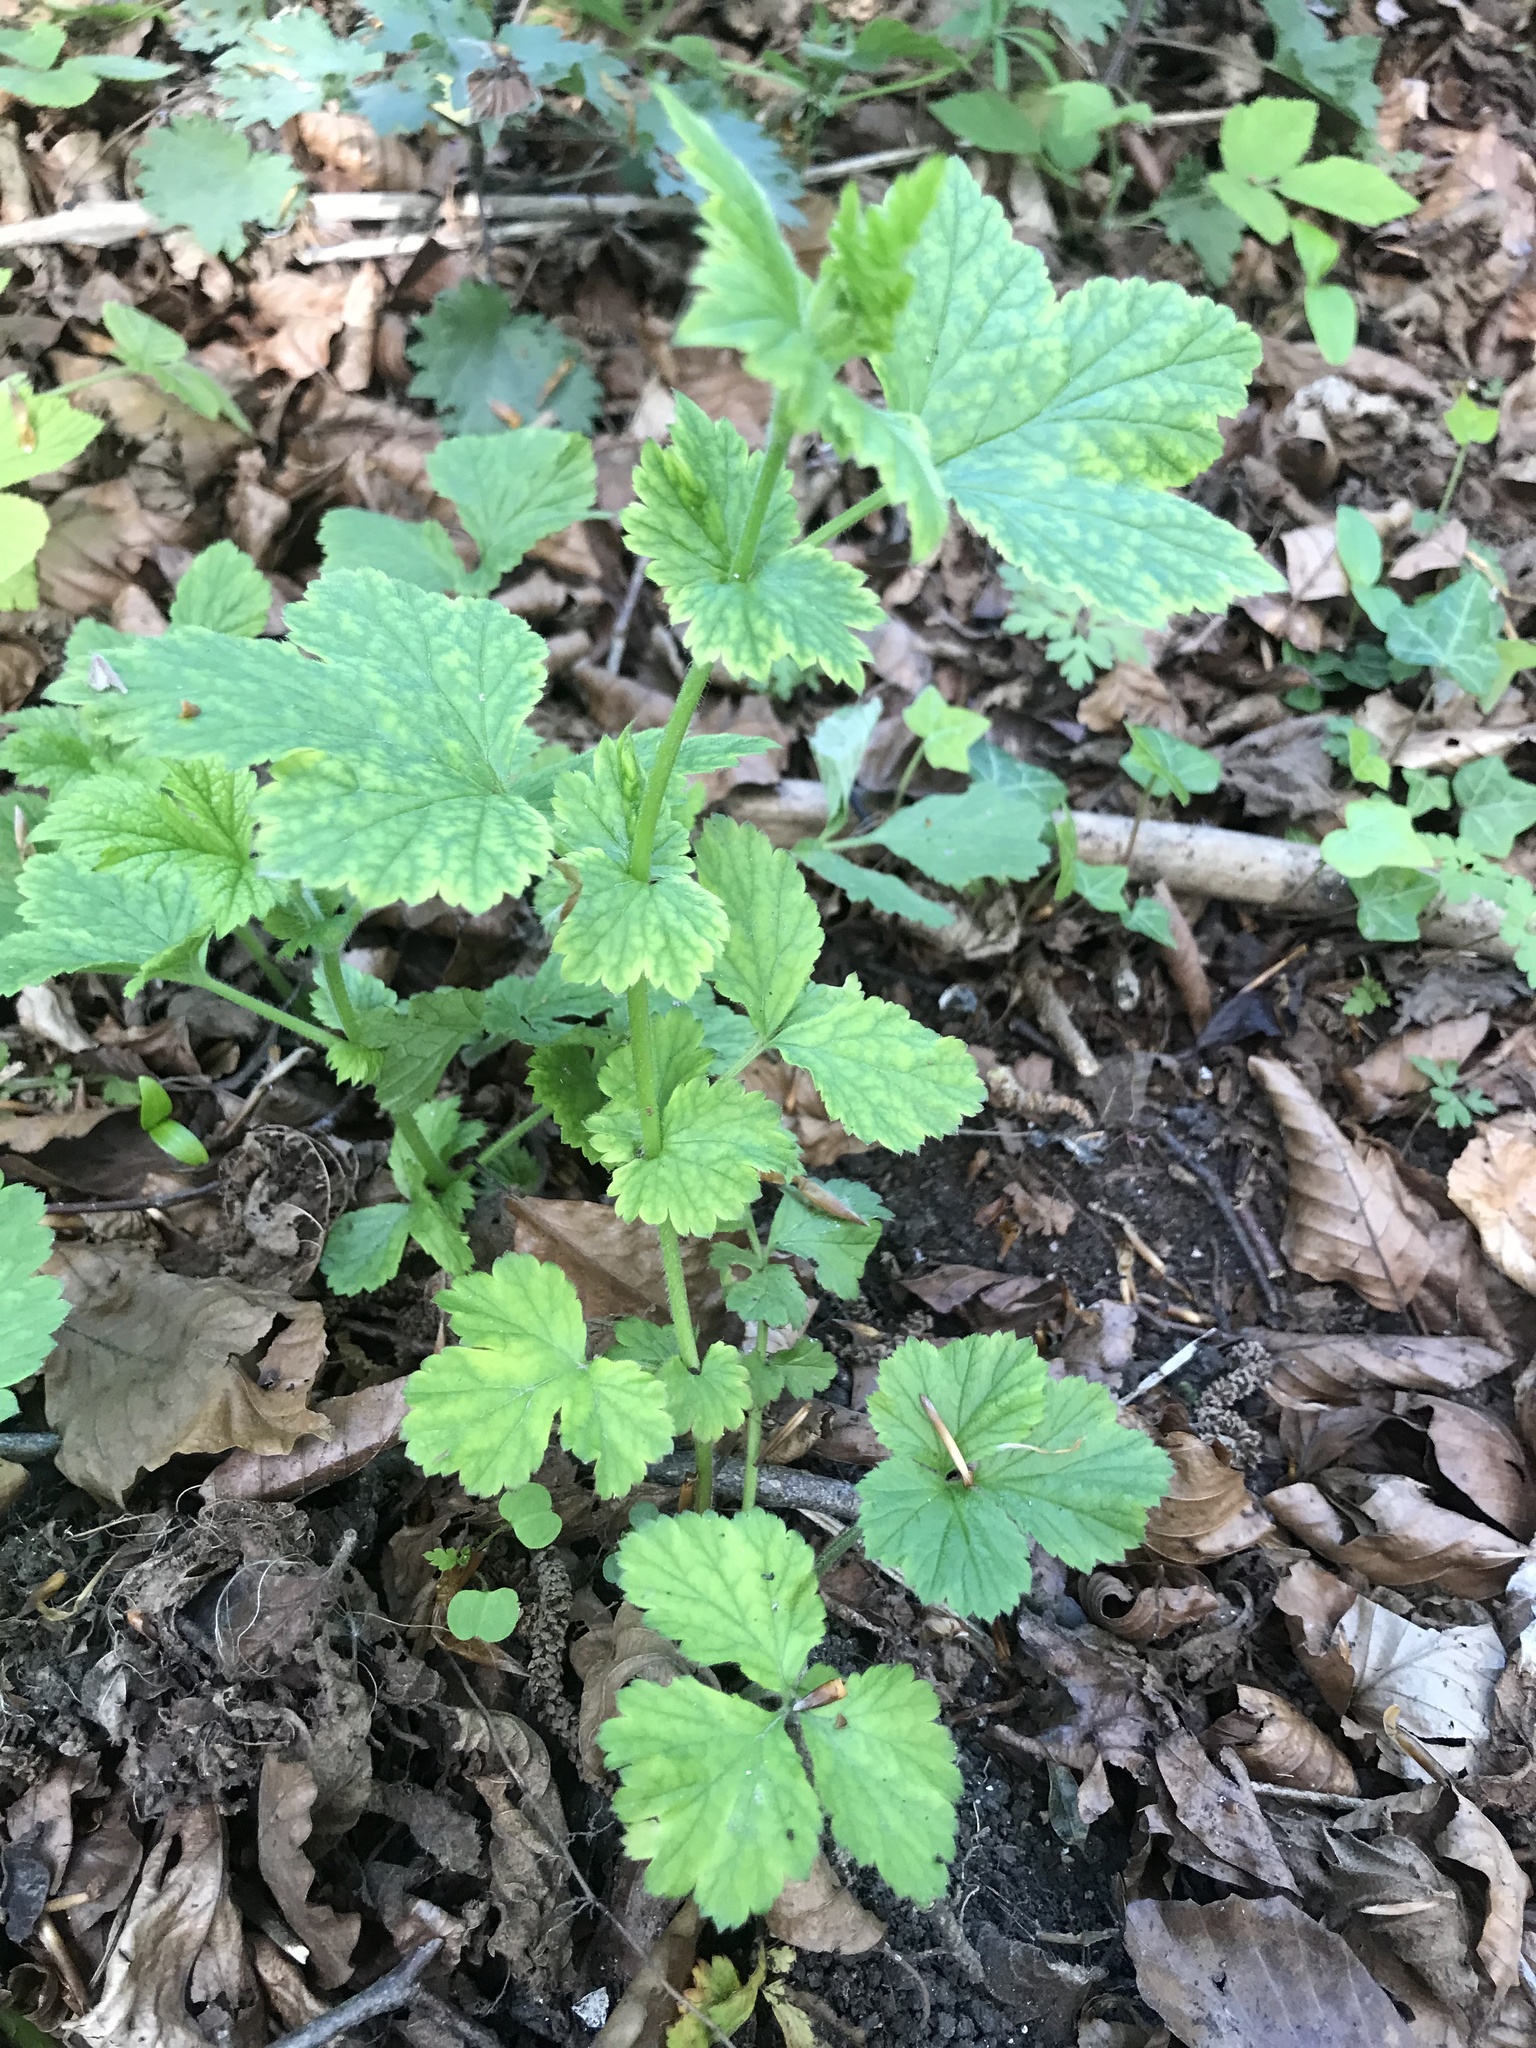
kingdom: Plantae
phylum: Tracheophyta
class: Magnoliopsida
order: Rosales
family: Rosaceae
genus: Geum
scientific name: Geum urbanum
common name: Wood avens
